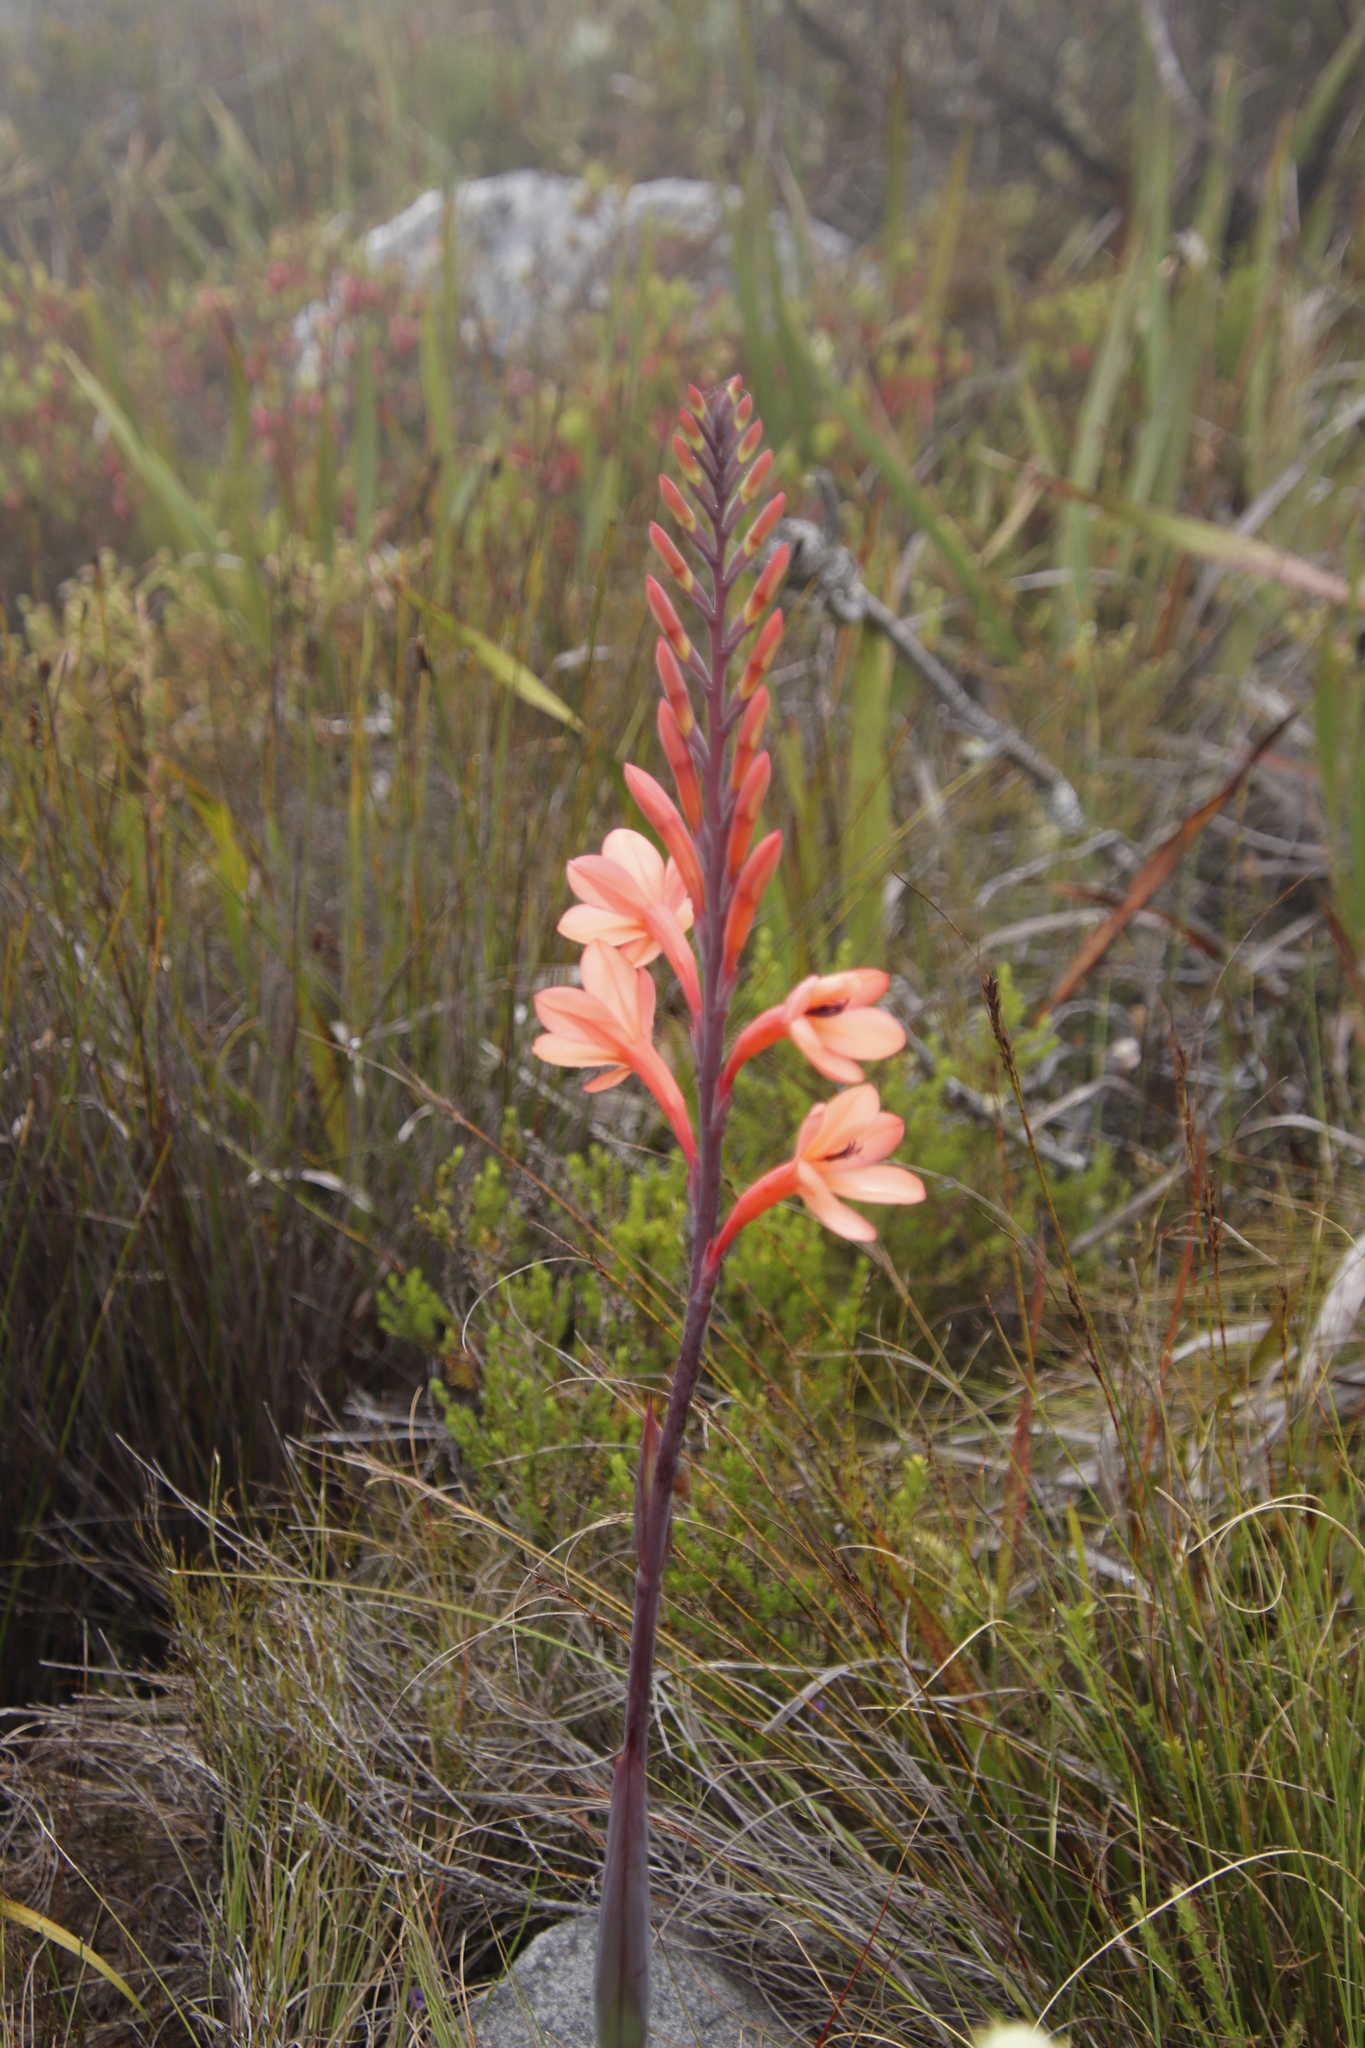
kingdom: Plantae
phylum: Tracheophyta
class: Liliopsida
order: Asparagales
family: Iridaceae
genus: Watsonia
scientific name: Watsonia tabularis
